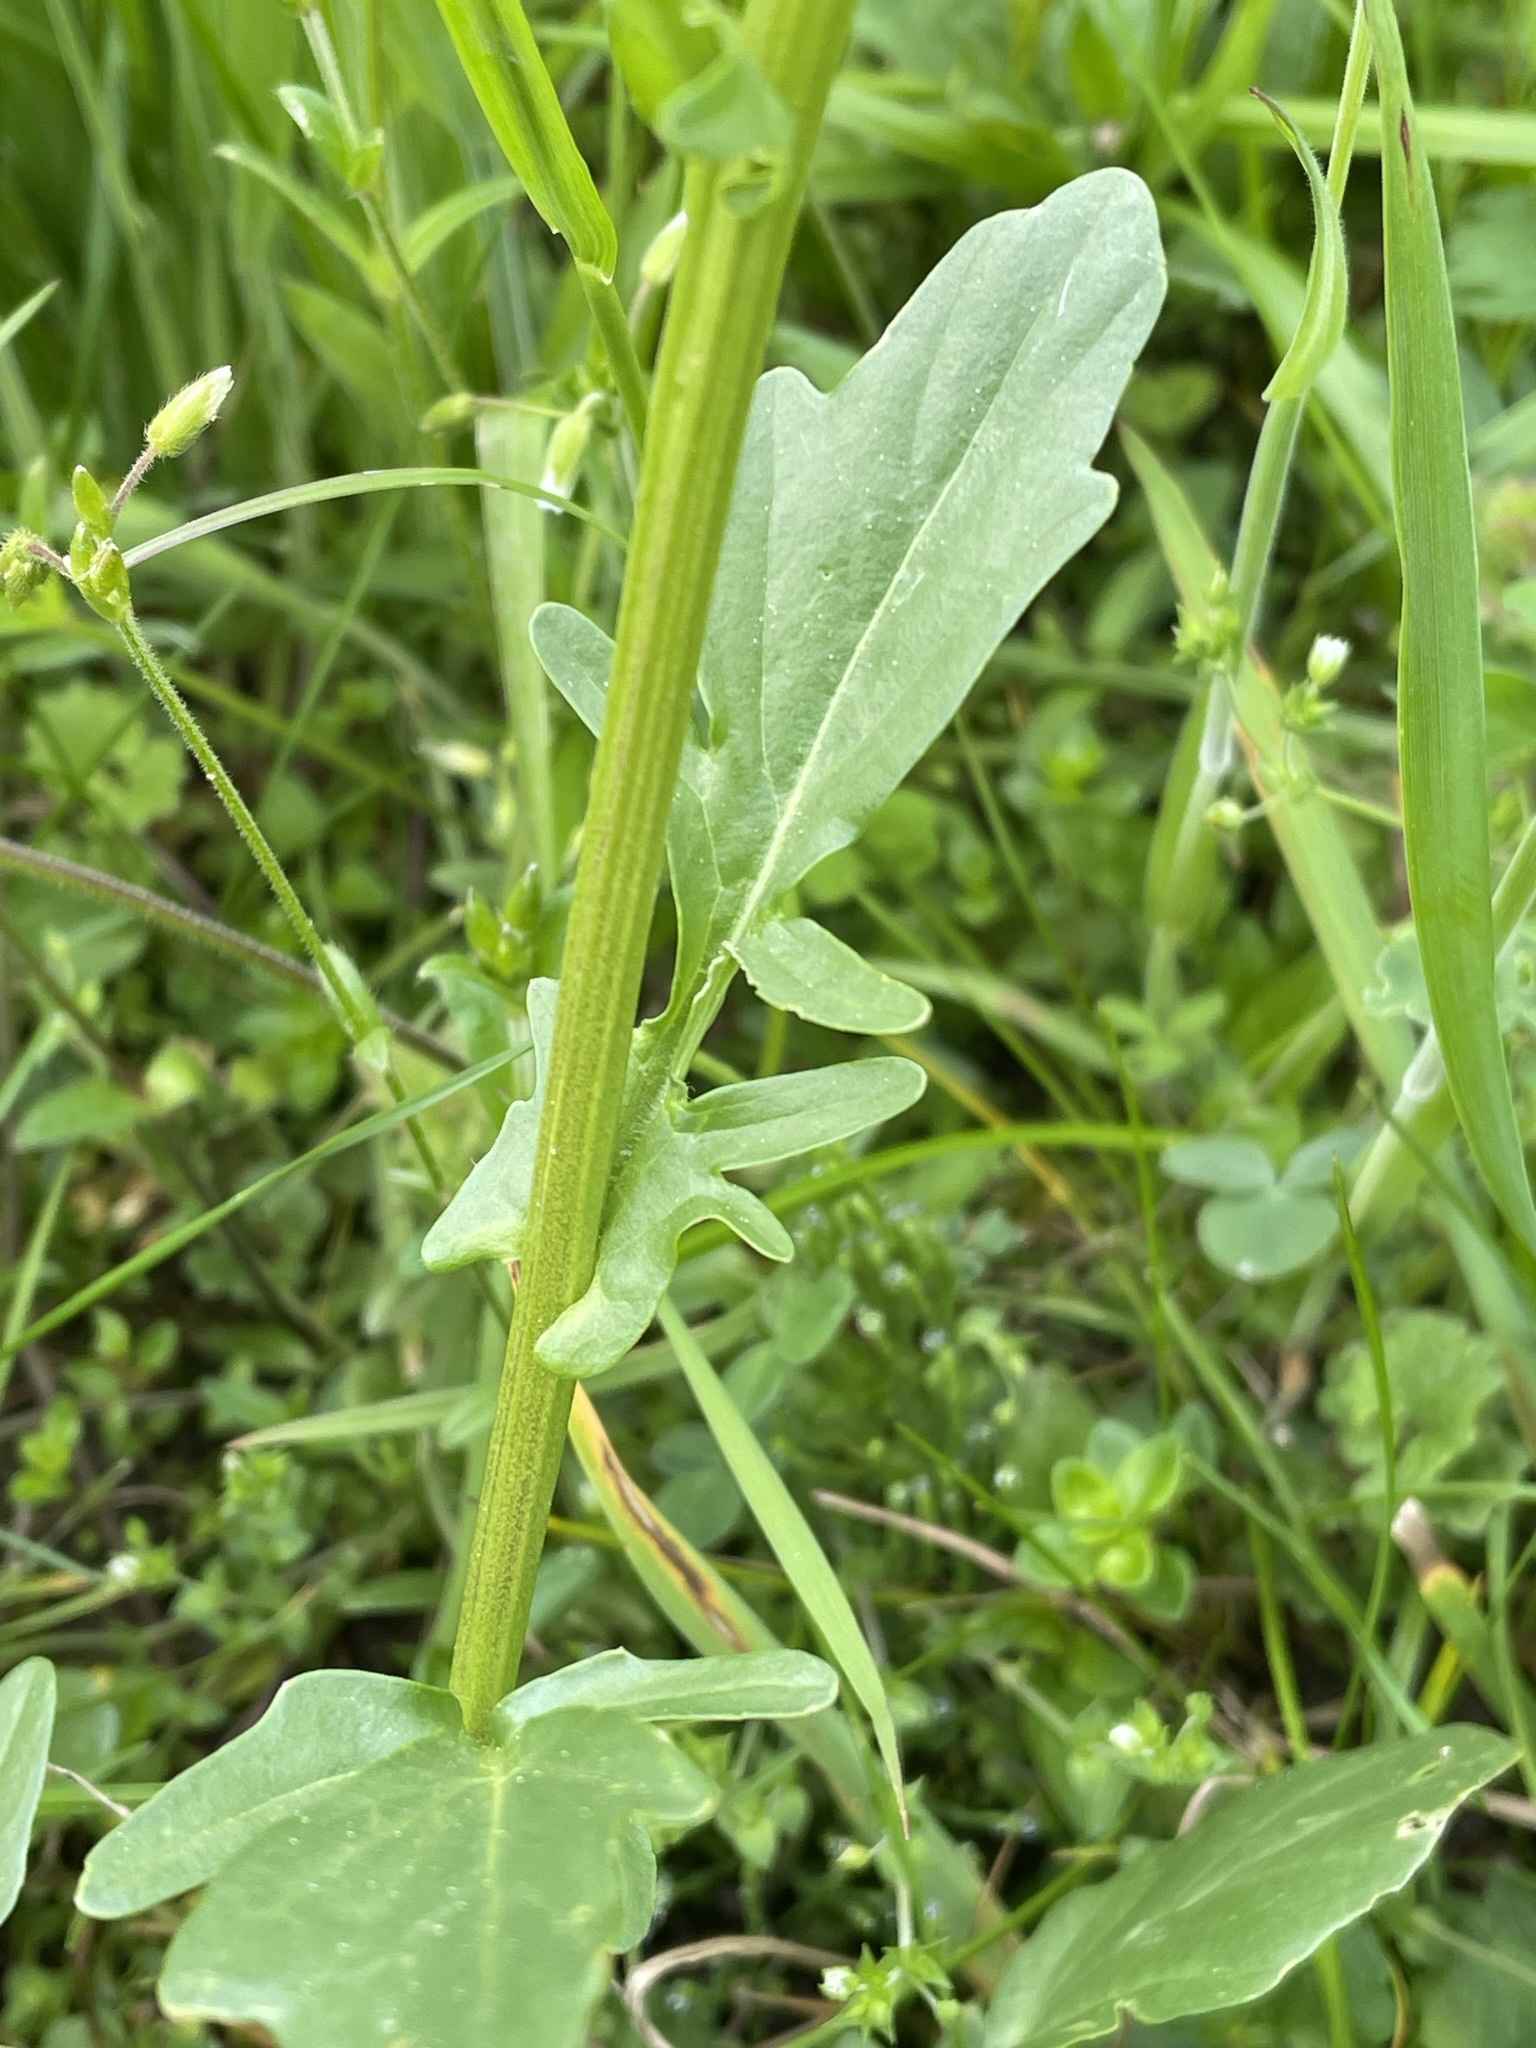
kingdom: Plantae
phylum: Tracheophyta
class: Magnoliopsida
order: Brassicales
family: Brassicaceae
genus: Barbarea
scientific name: Barbarea vulgaris
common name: Cressy-greens
